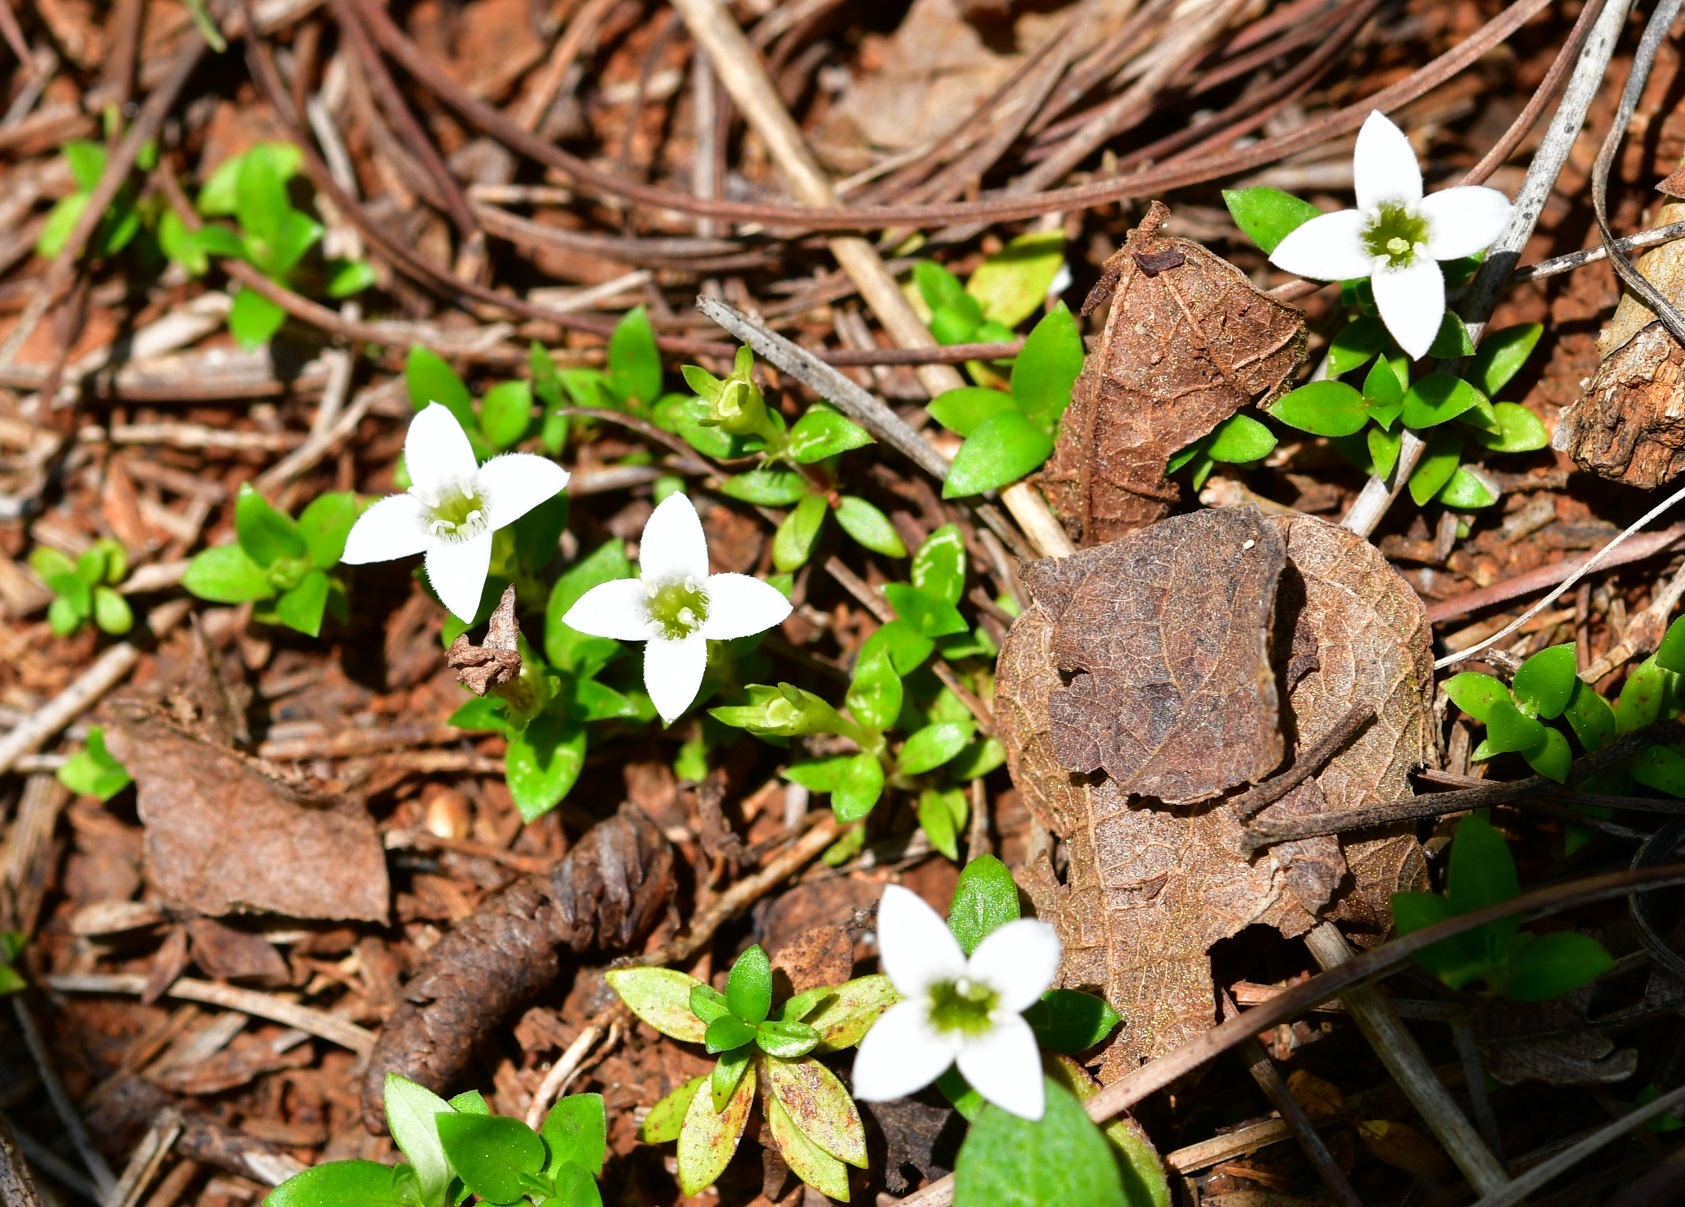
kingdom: Plantae
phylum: Tracheophyta
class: Magnoliopsida
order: Gentianales
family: Rubiaceae
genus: Arcytophyllum
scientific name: Arcytophyllum serpyllaceum
